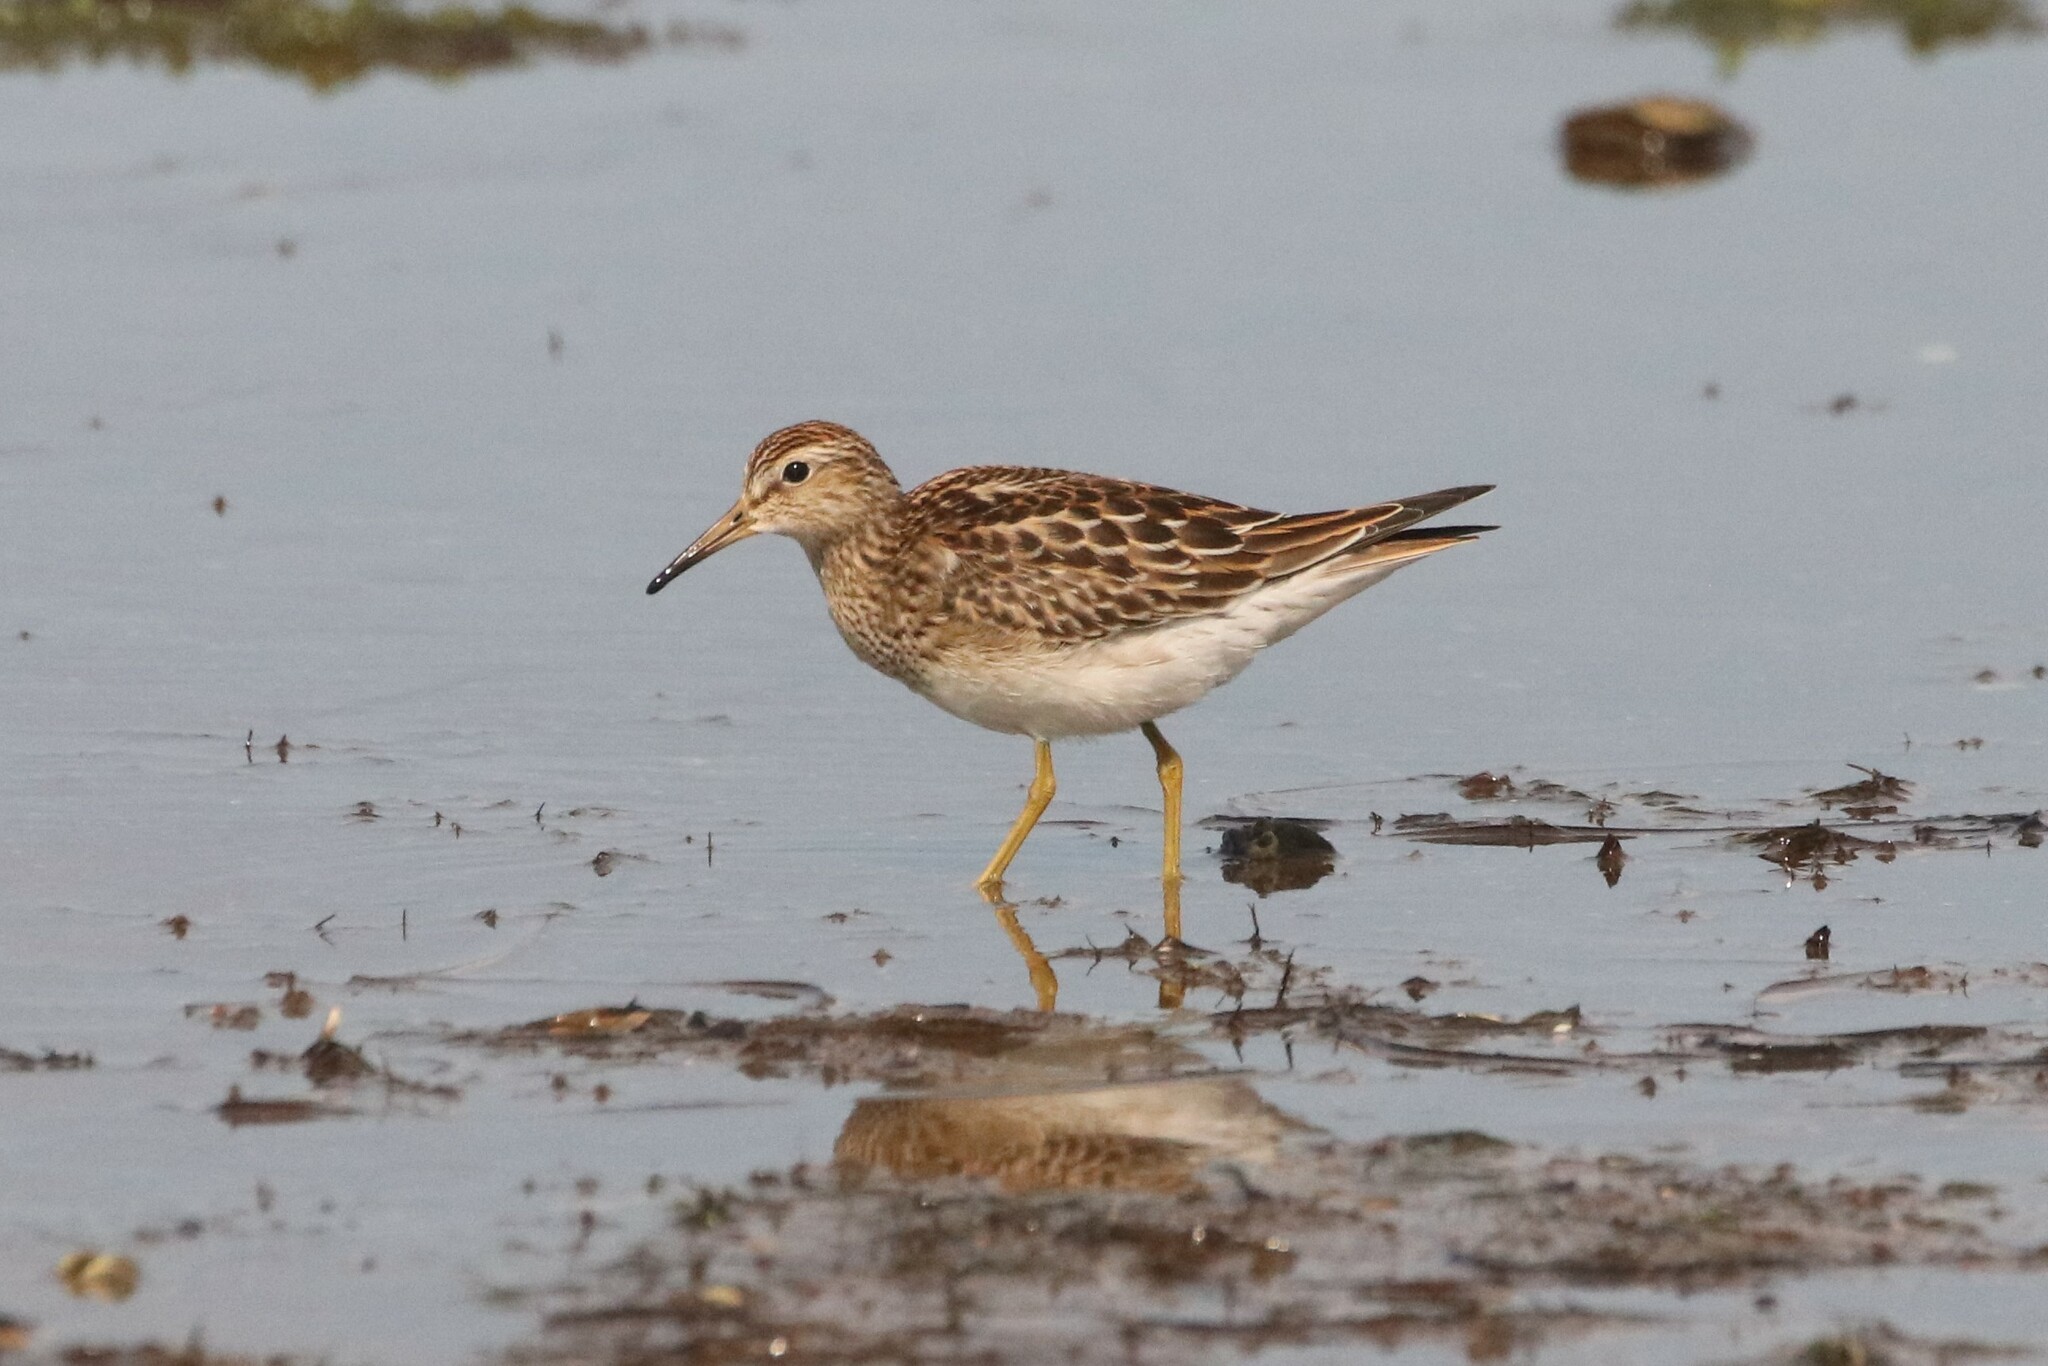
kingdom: Animalia
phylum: Chordata
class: Aves
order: Charadriiformes
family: Scolopacidae
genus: Calidris
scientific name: Calidris melanotos
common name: Pectoral sandpiper
